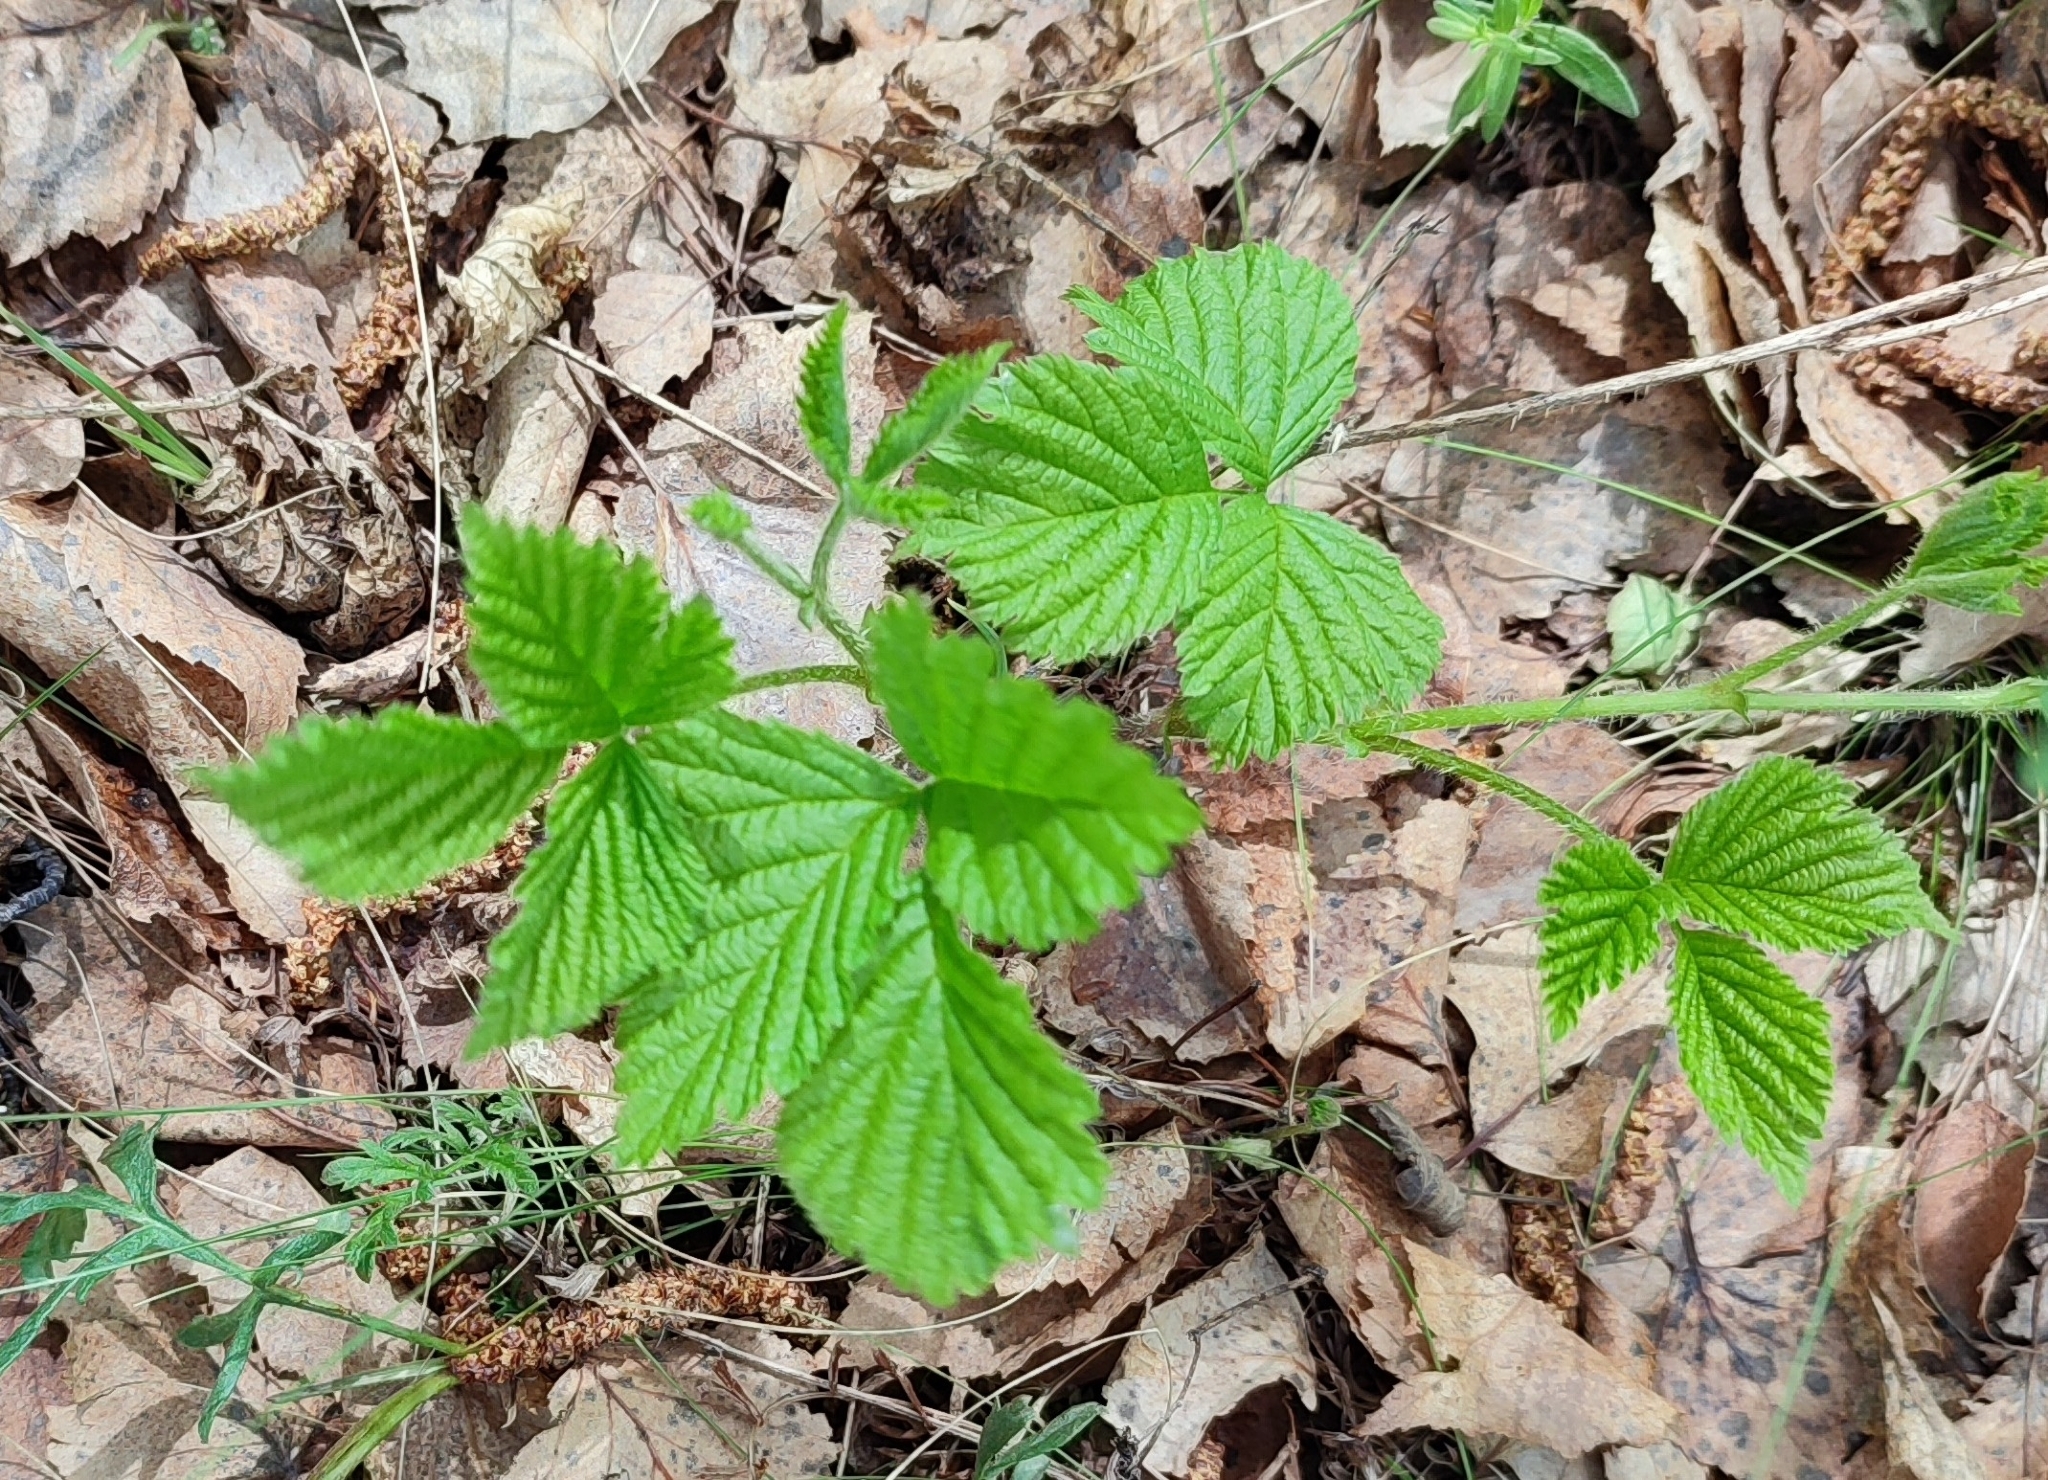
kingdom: Plantae
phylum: Tracheophyta
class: Magnoliopsida
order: Rosales
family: Rosaceae
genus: Rubus
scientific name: Rubus saxatilis
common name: Stone bramble
